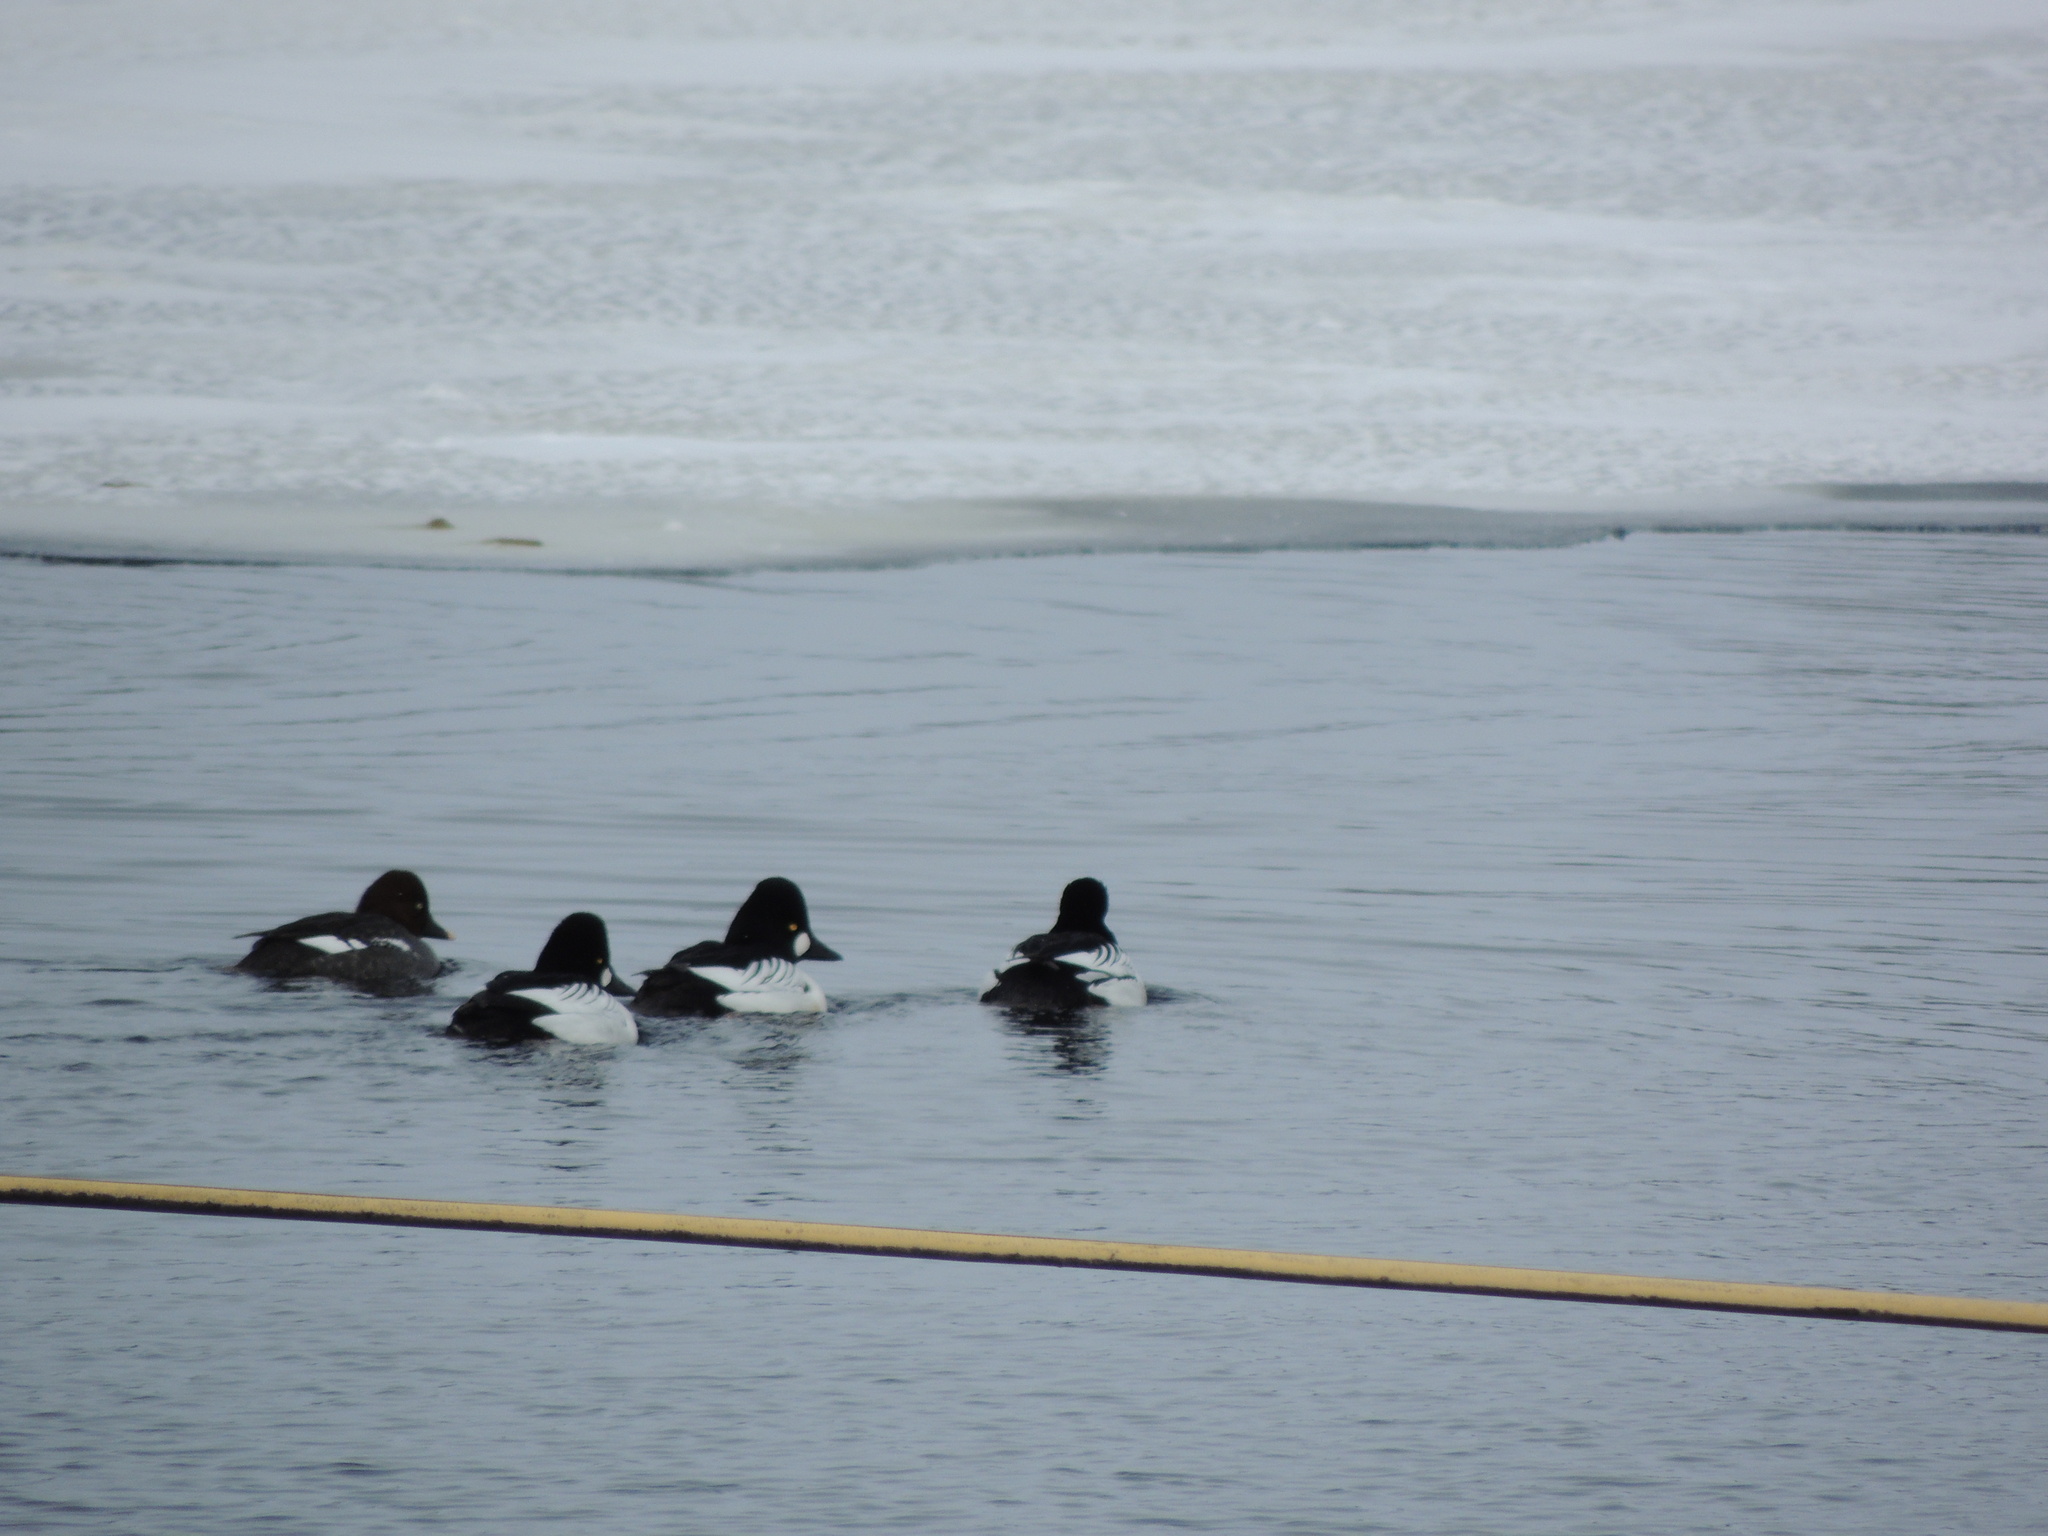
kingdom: Animalia
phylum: Chordata
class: Aves
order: Anseriformes
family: Anatidae
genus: Bucephala
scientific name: Bucephala clangula
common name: Common goldeneye
